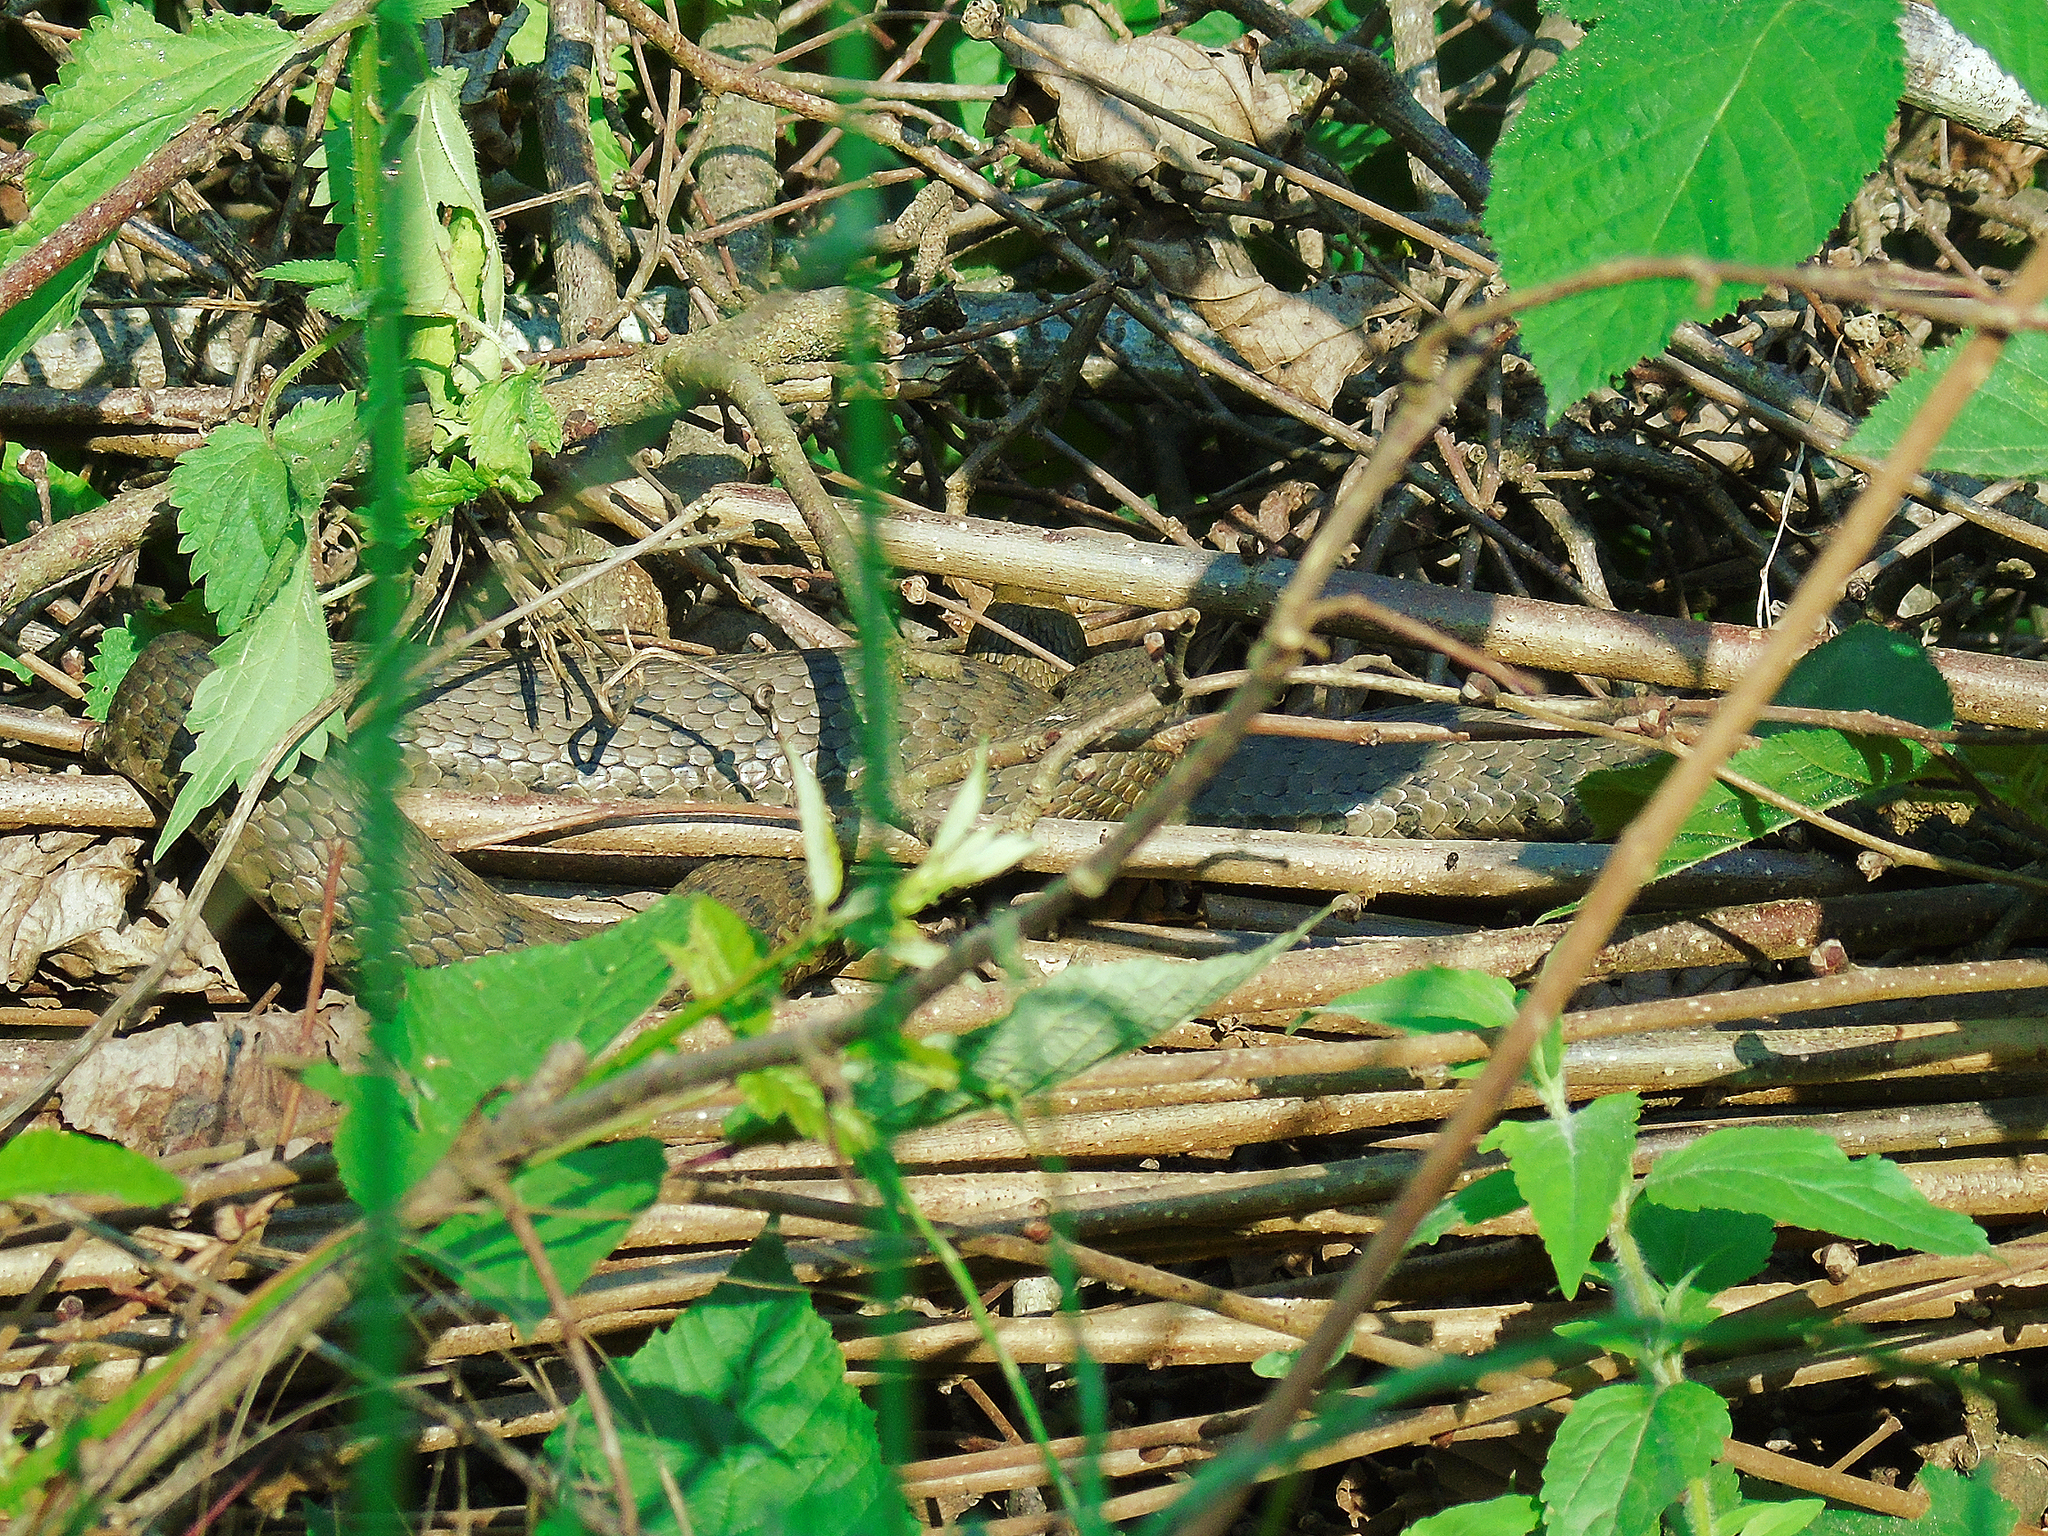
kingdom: Animalia
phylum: Chordata
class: Squamata
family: Colubridae
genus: Natrix
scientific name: Natrix tessellata
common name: Dice snake
